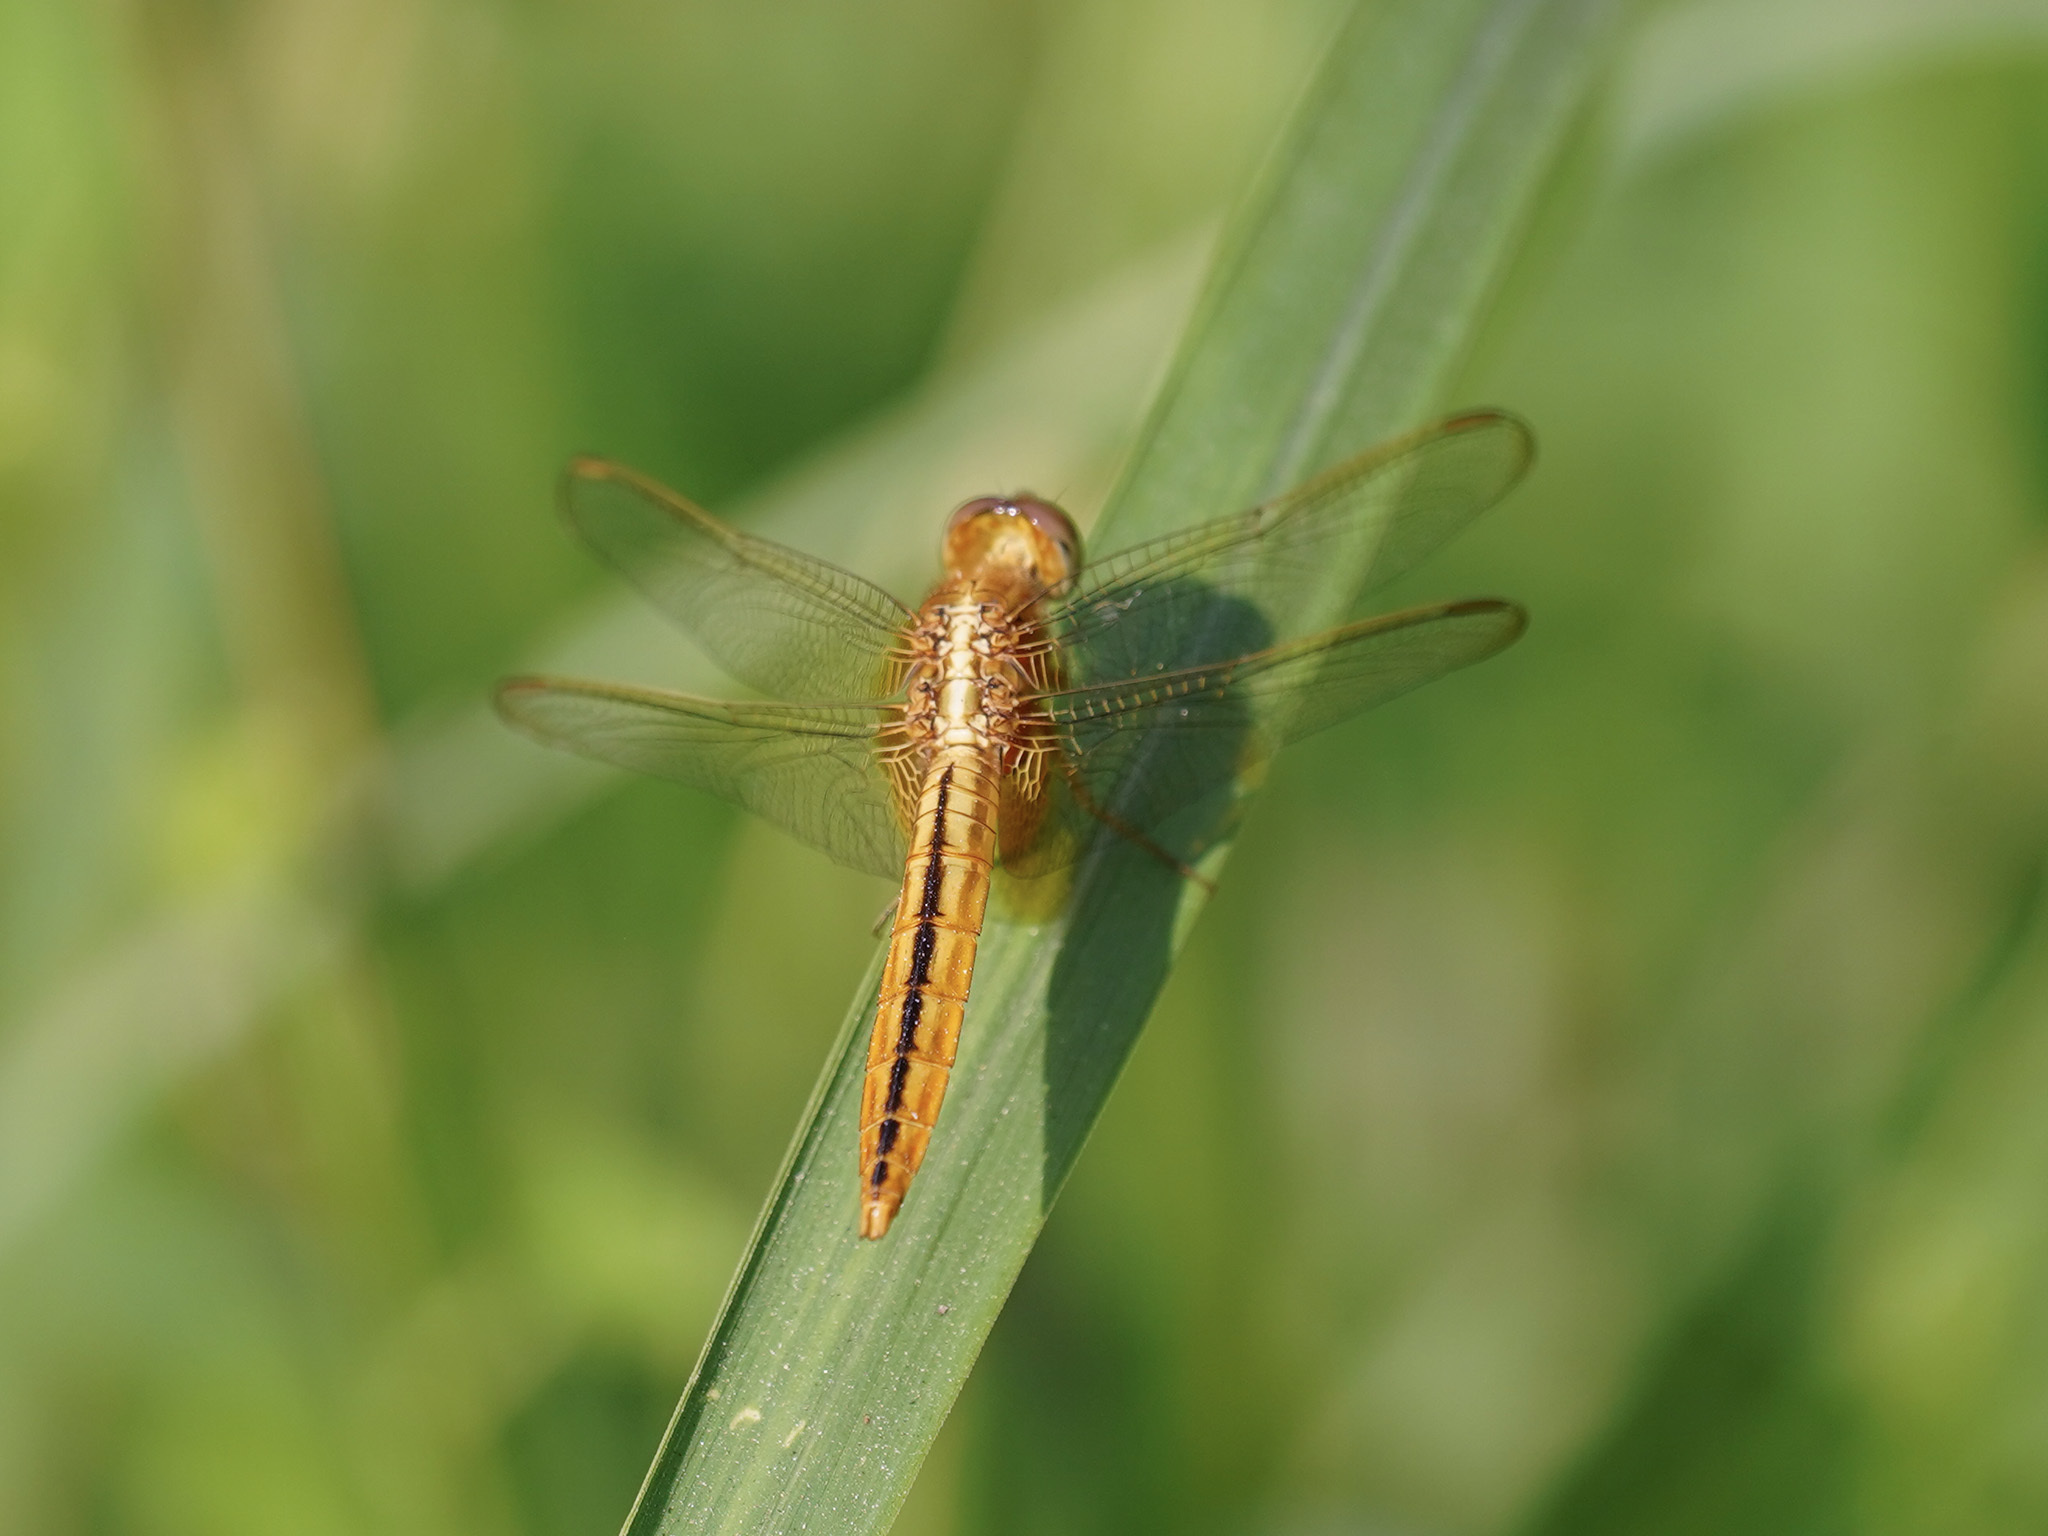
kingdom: Animalia
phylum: Arthropoda
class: Insecta
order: Odonata
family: Libellulidae
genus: Crocothemis
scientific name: Crocothemis servilia
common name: Scarlet skimmer
